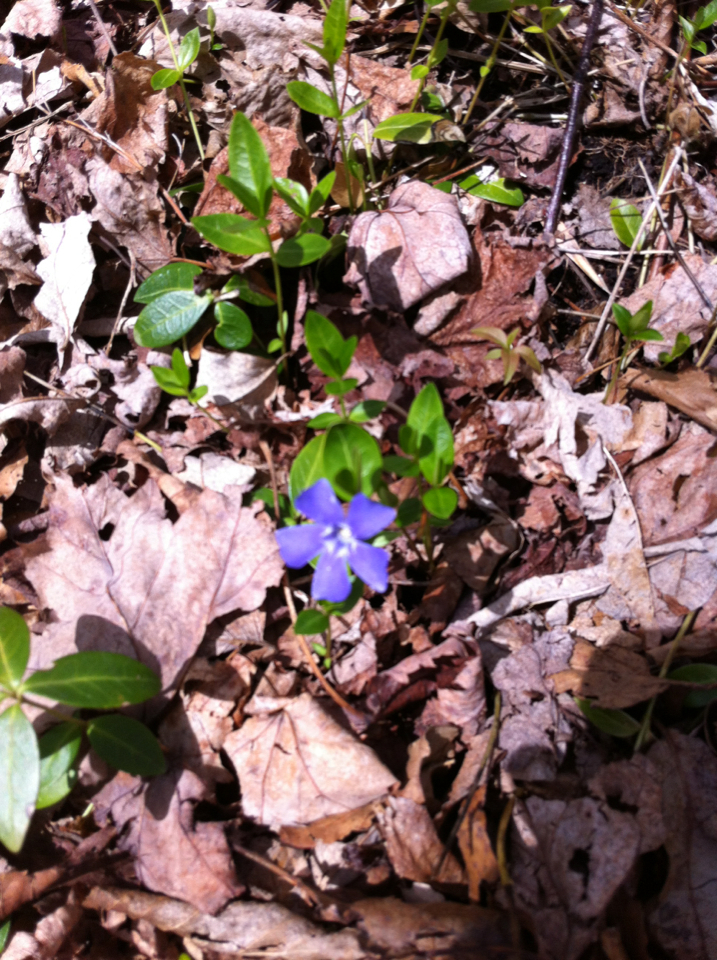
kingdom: Plantae
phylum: Tracheophyta
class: Magnoliopsida
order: Gentianales
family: Apocynaceae
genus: Vinca
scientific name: Vinca minor
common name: Lesser periwinkle
